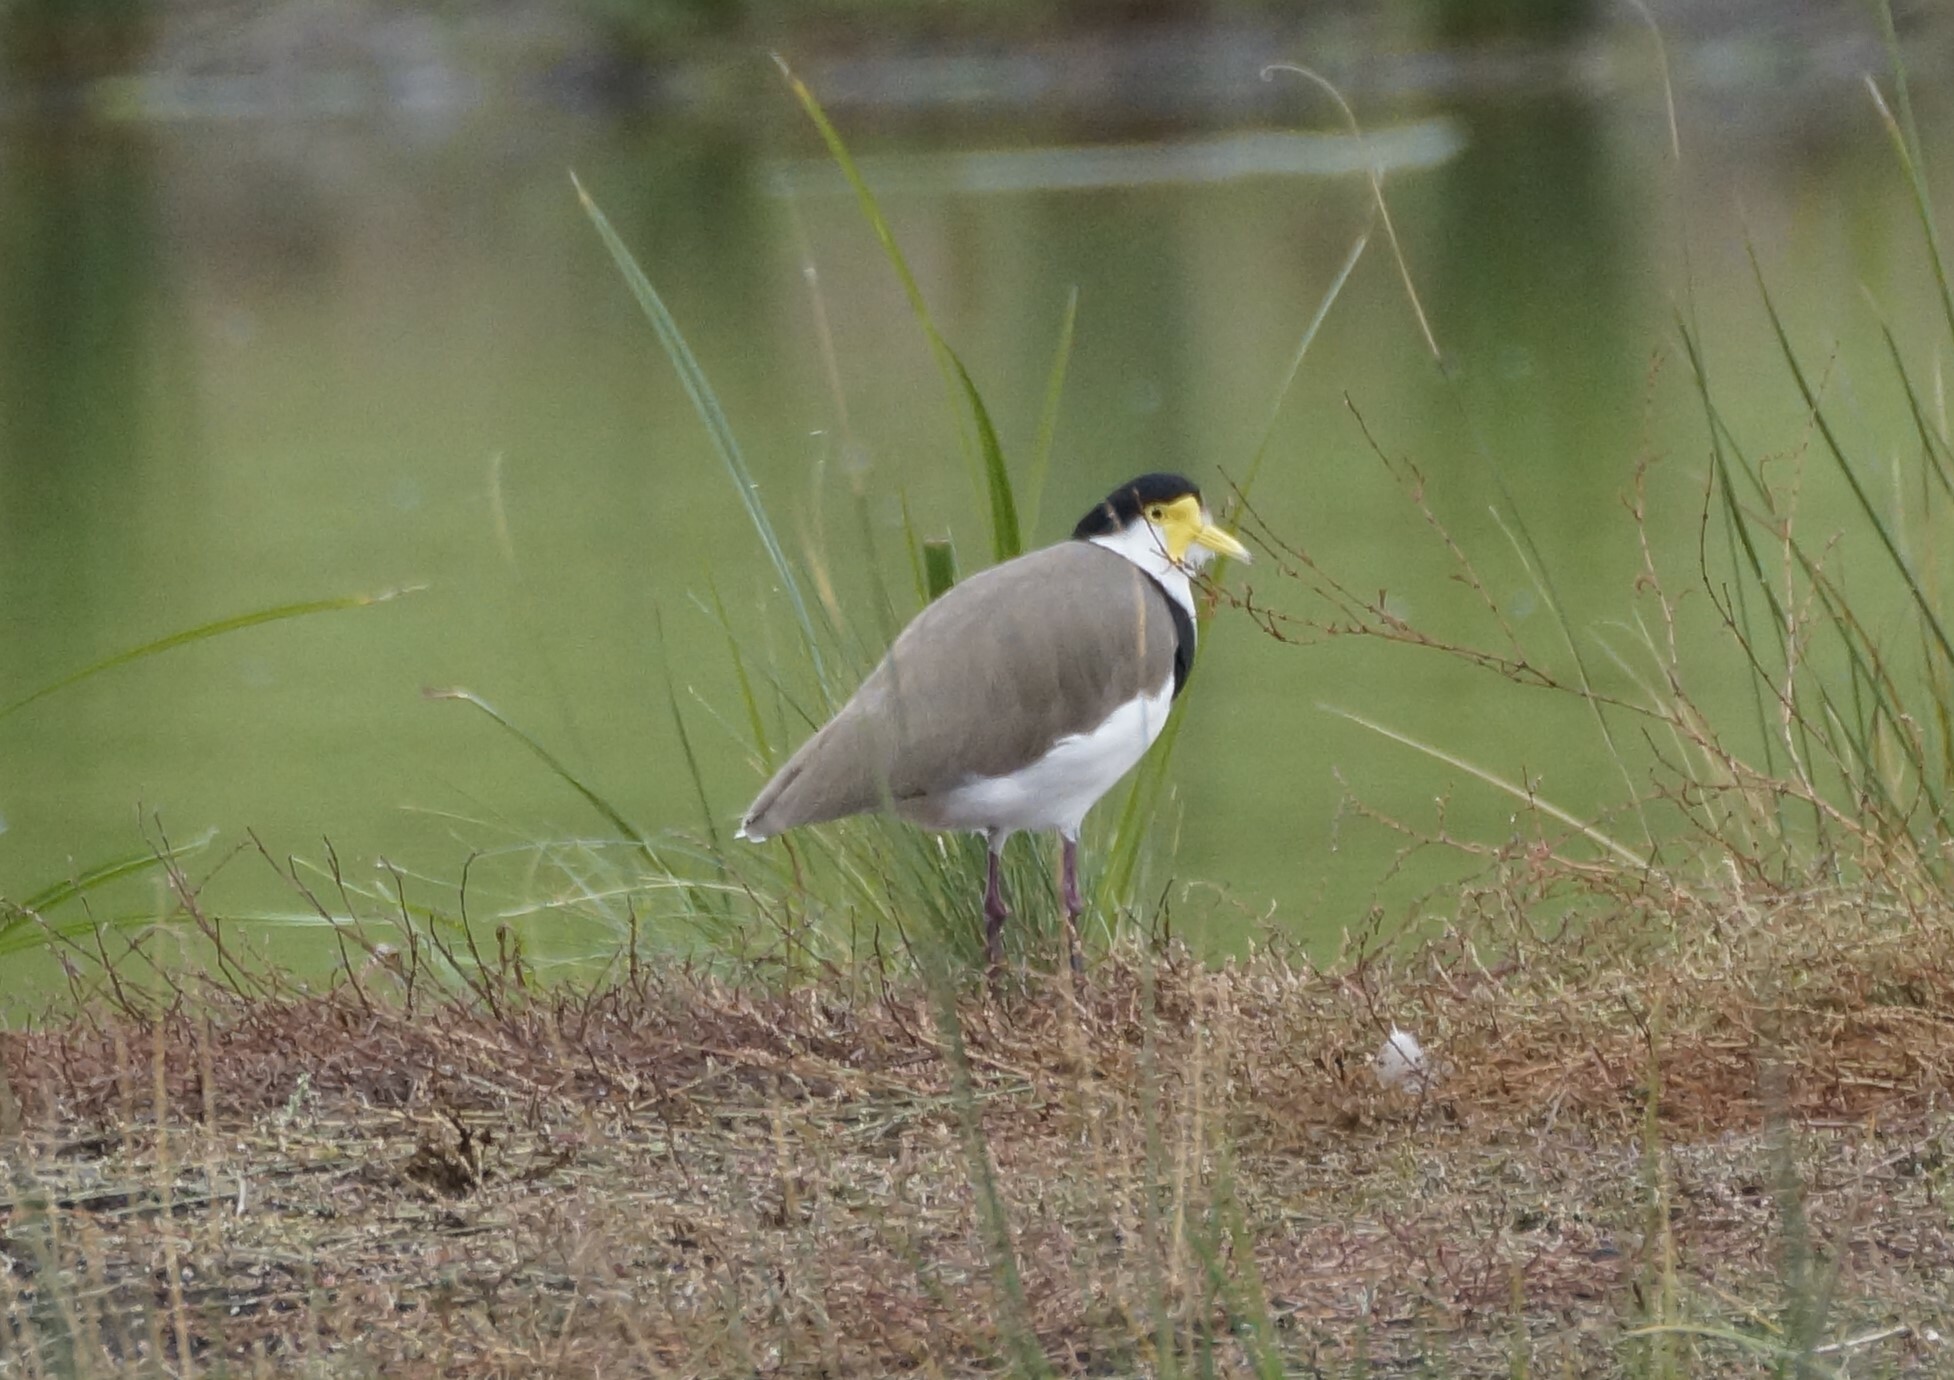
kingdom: Animalia
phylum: Chordata
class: Aves
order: Charadriiformes
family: Charadriidae
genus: Vanellus
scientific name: Vanellus miles
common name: Masked lapwing
